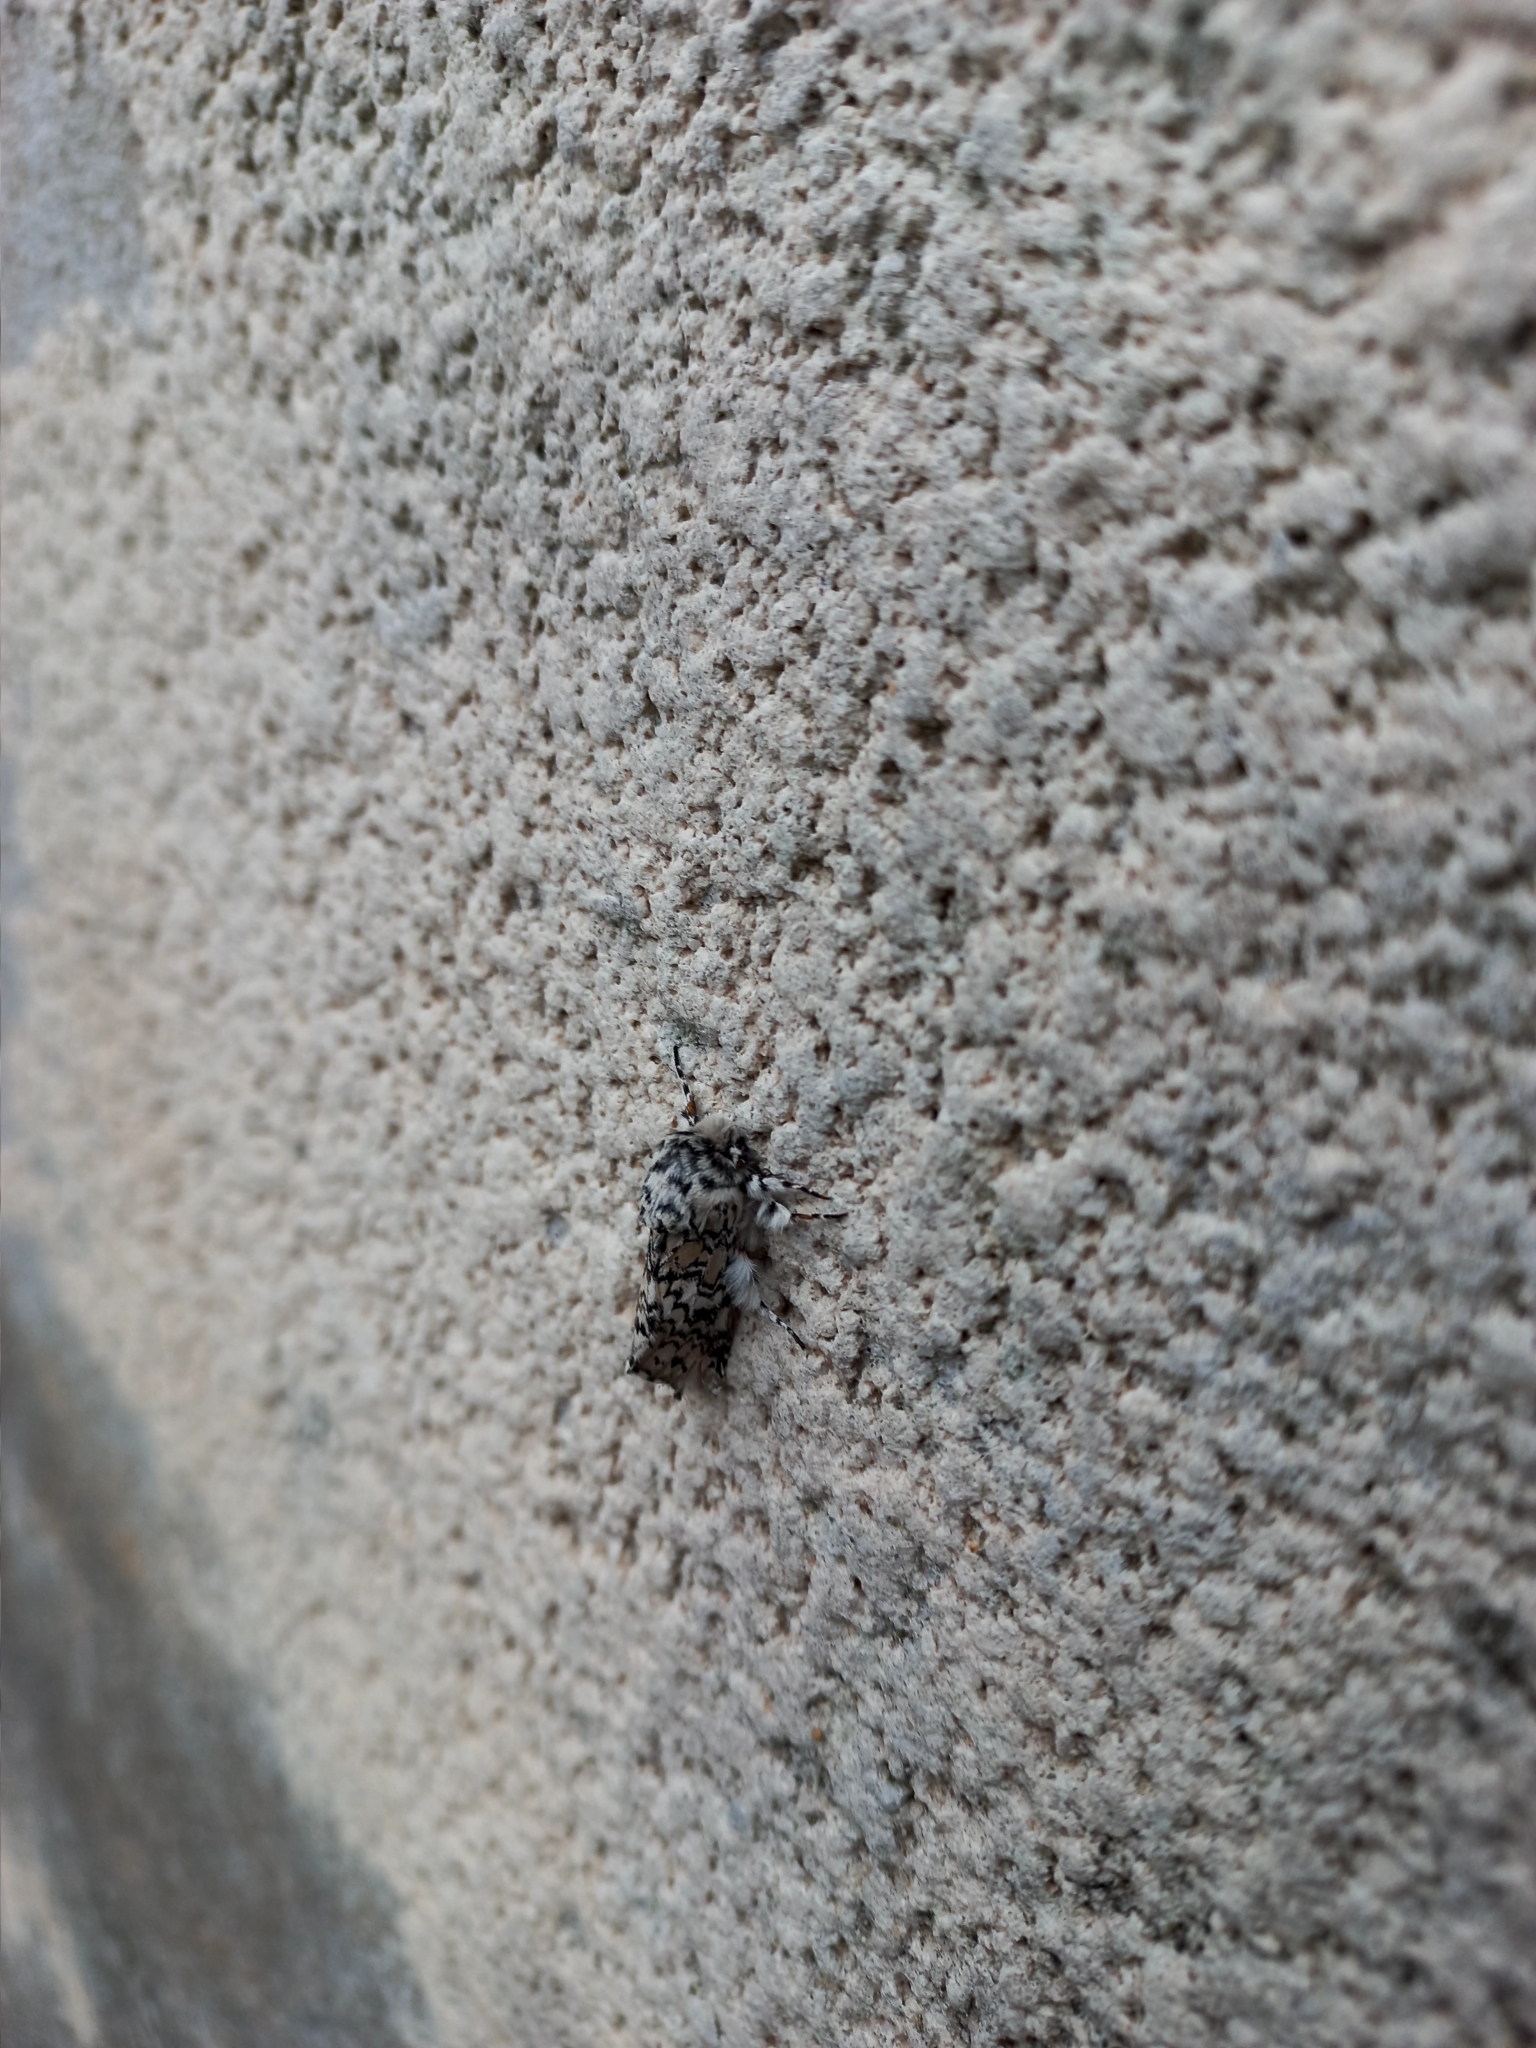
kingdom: Animalia
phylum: Arthropoda
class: Insecta
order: Lepidoptera
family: Notodontidae
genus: Tecmessa
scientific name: Tecmessa annulipes
